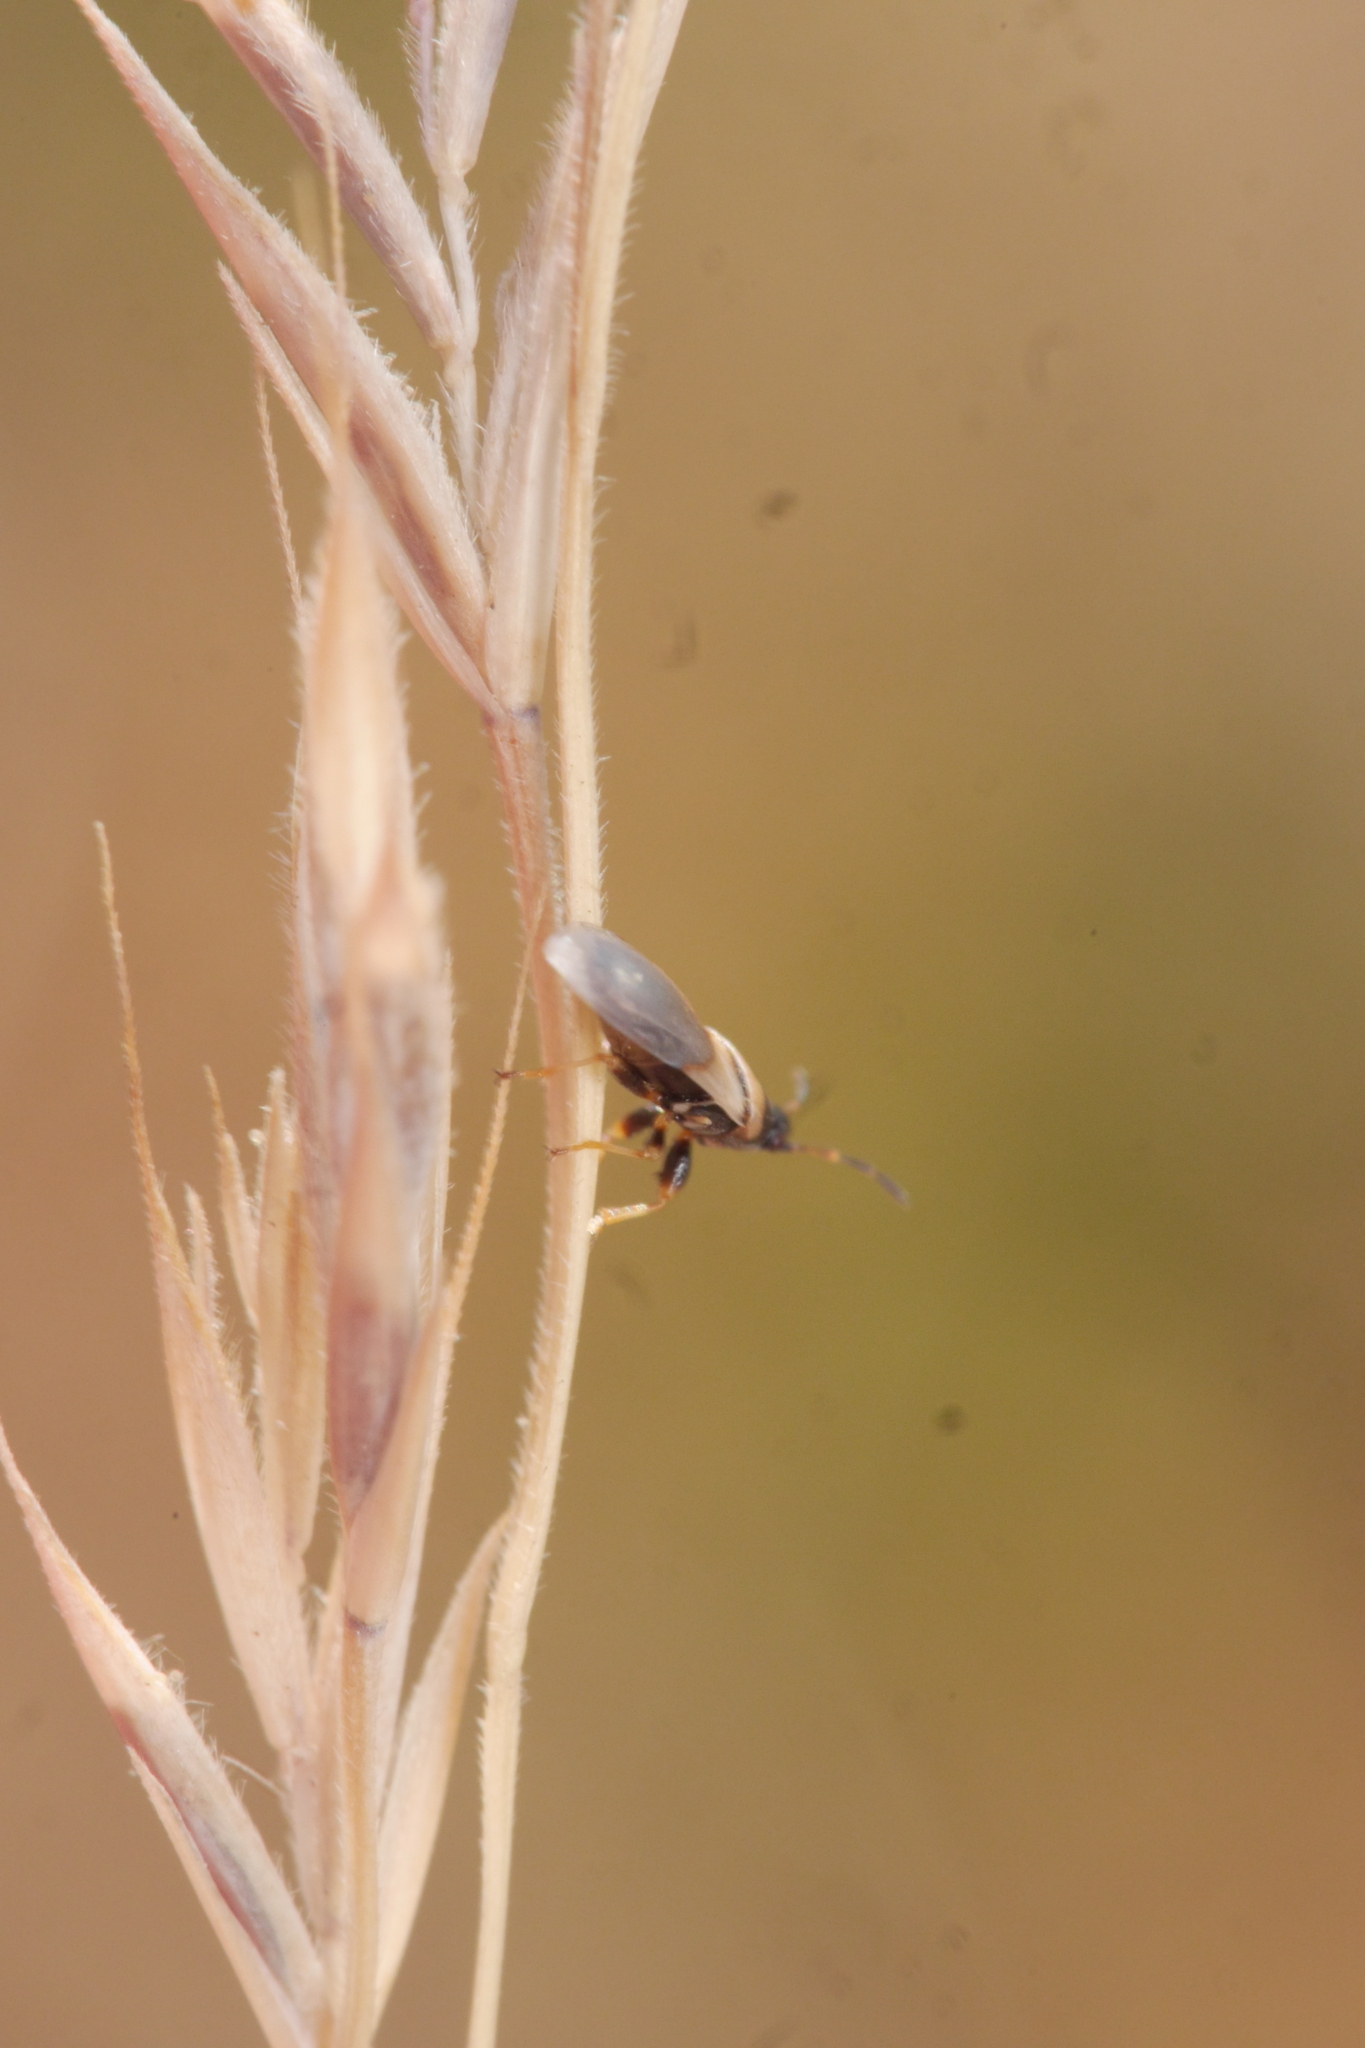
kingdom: Animalia
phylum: Arthropoda
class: Insecta
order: Hemiptera
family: Oxycarenidae
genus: Oxycarenus
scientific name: Oxycarenus pallens
